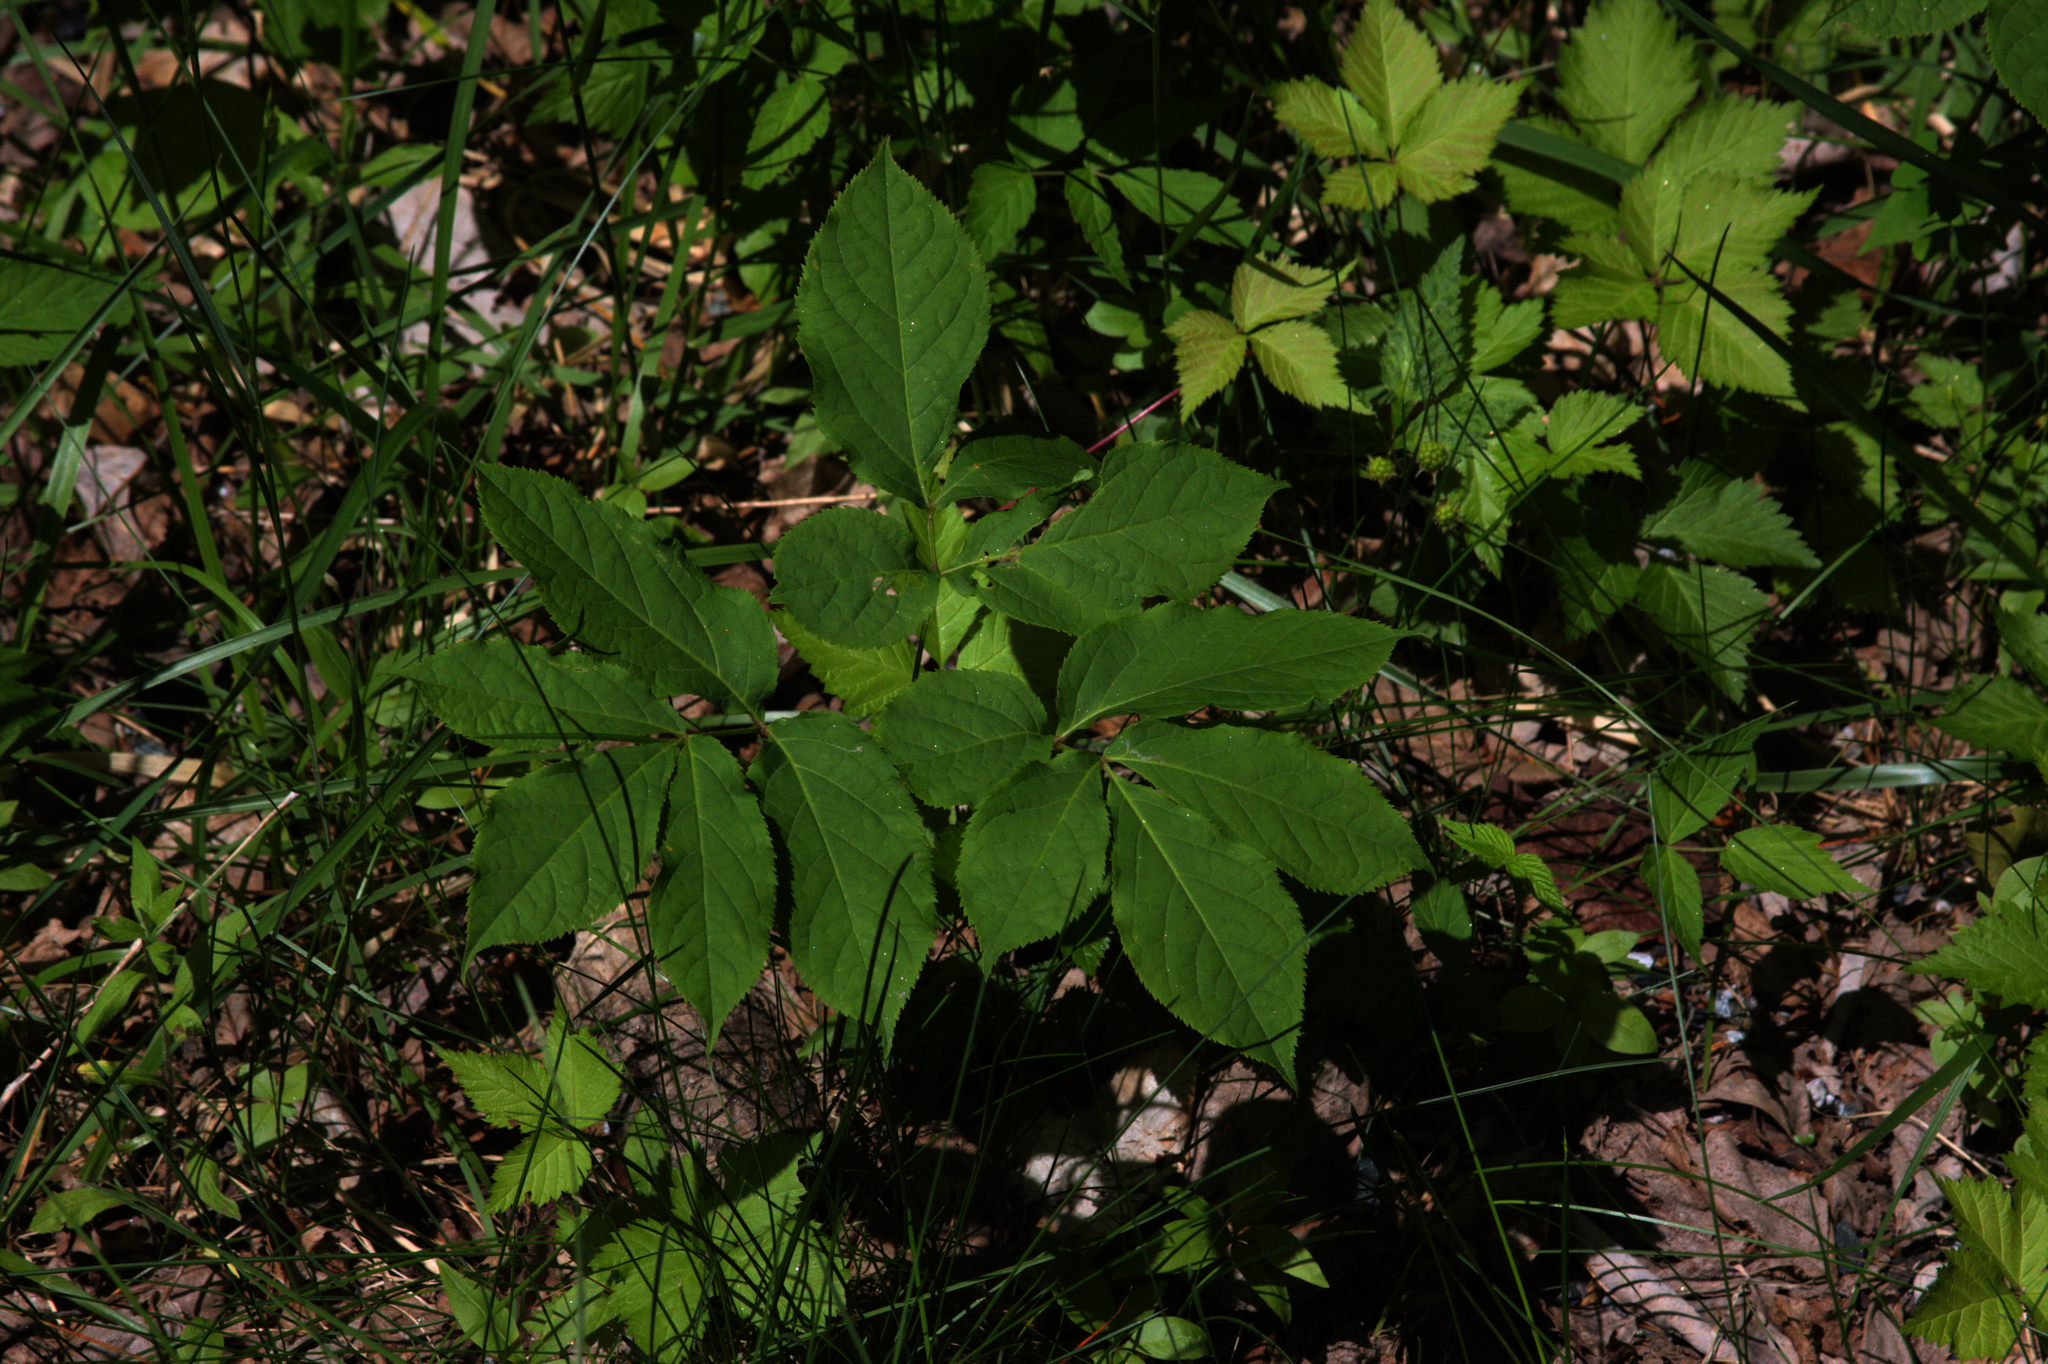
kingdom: Plantae
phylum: Tracheophyta
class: Magnoliopsida
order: Apiales
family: Araliaceae
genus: Aralia
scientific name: Aralia nudicaulis
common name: Wild sarsaparilla
